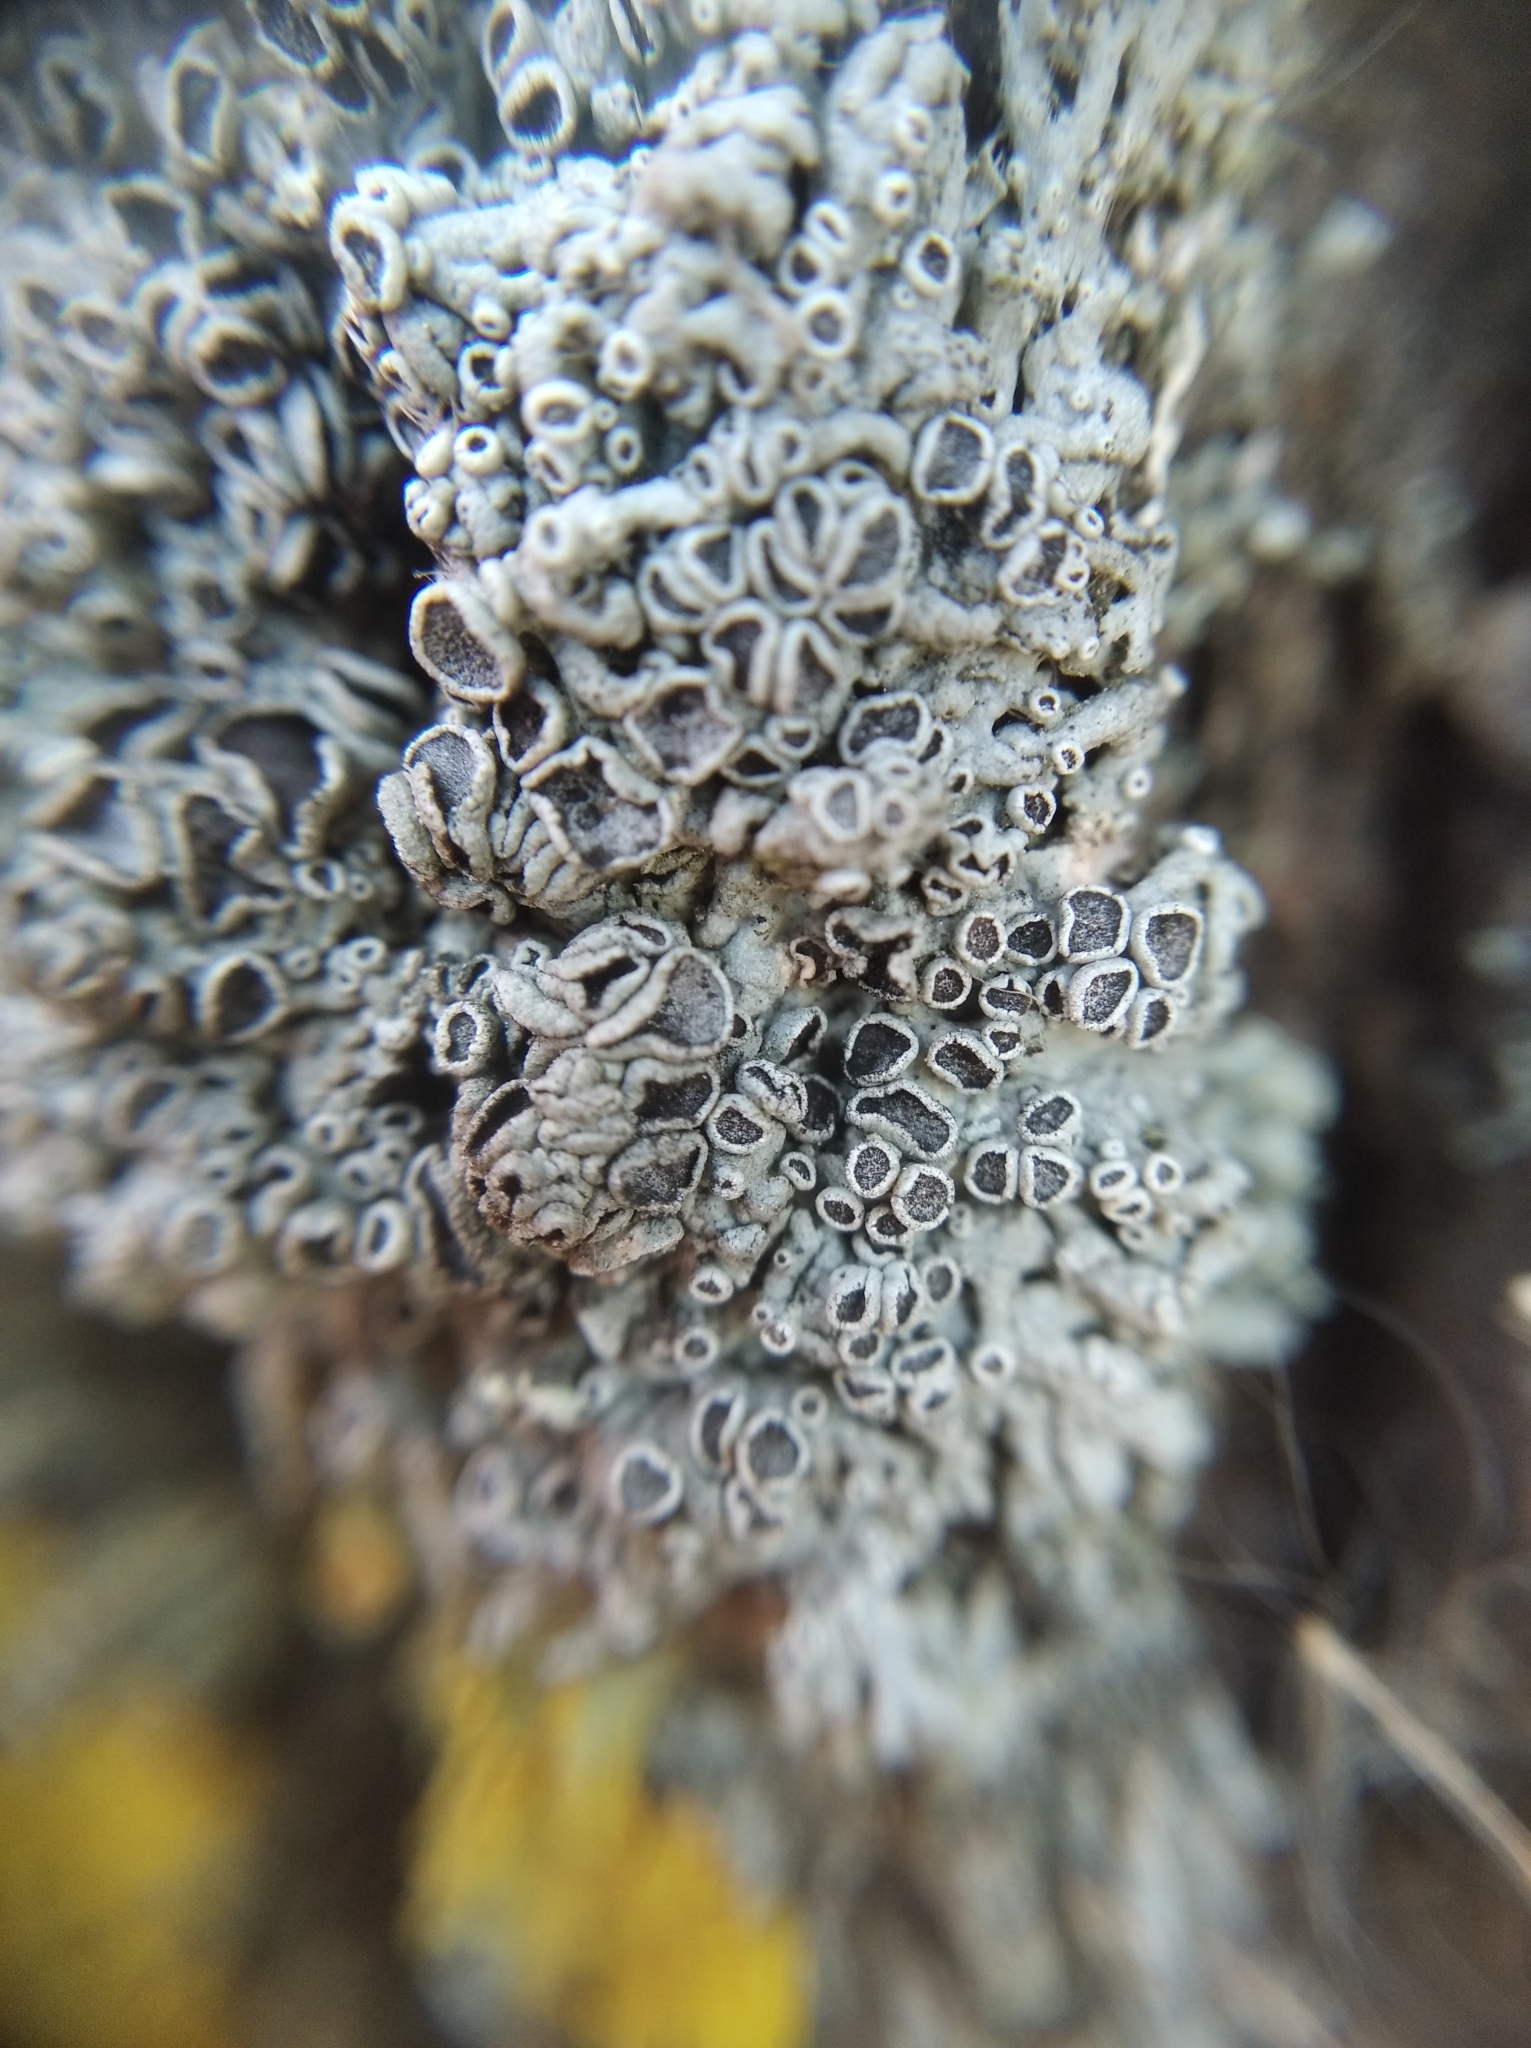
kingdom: Fungi
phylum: Ascomycota
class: Lecanoromycetes
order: Caliciales
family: Physciaceae
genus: Physcia
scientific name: Physcia stellaris
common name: Star rosette lichen
